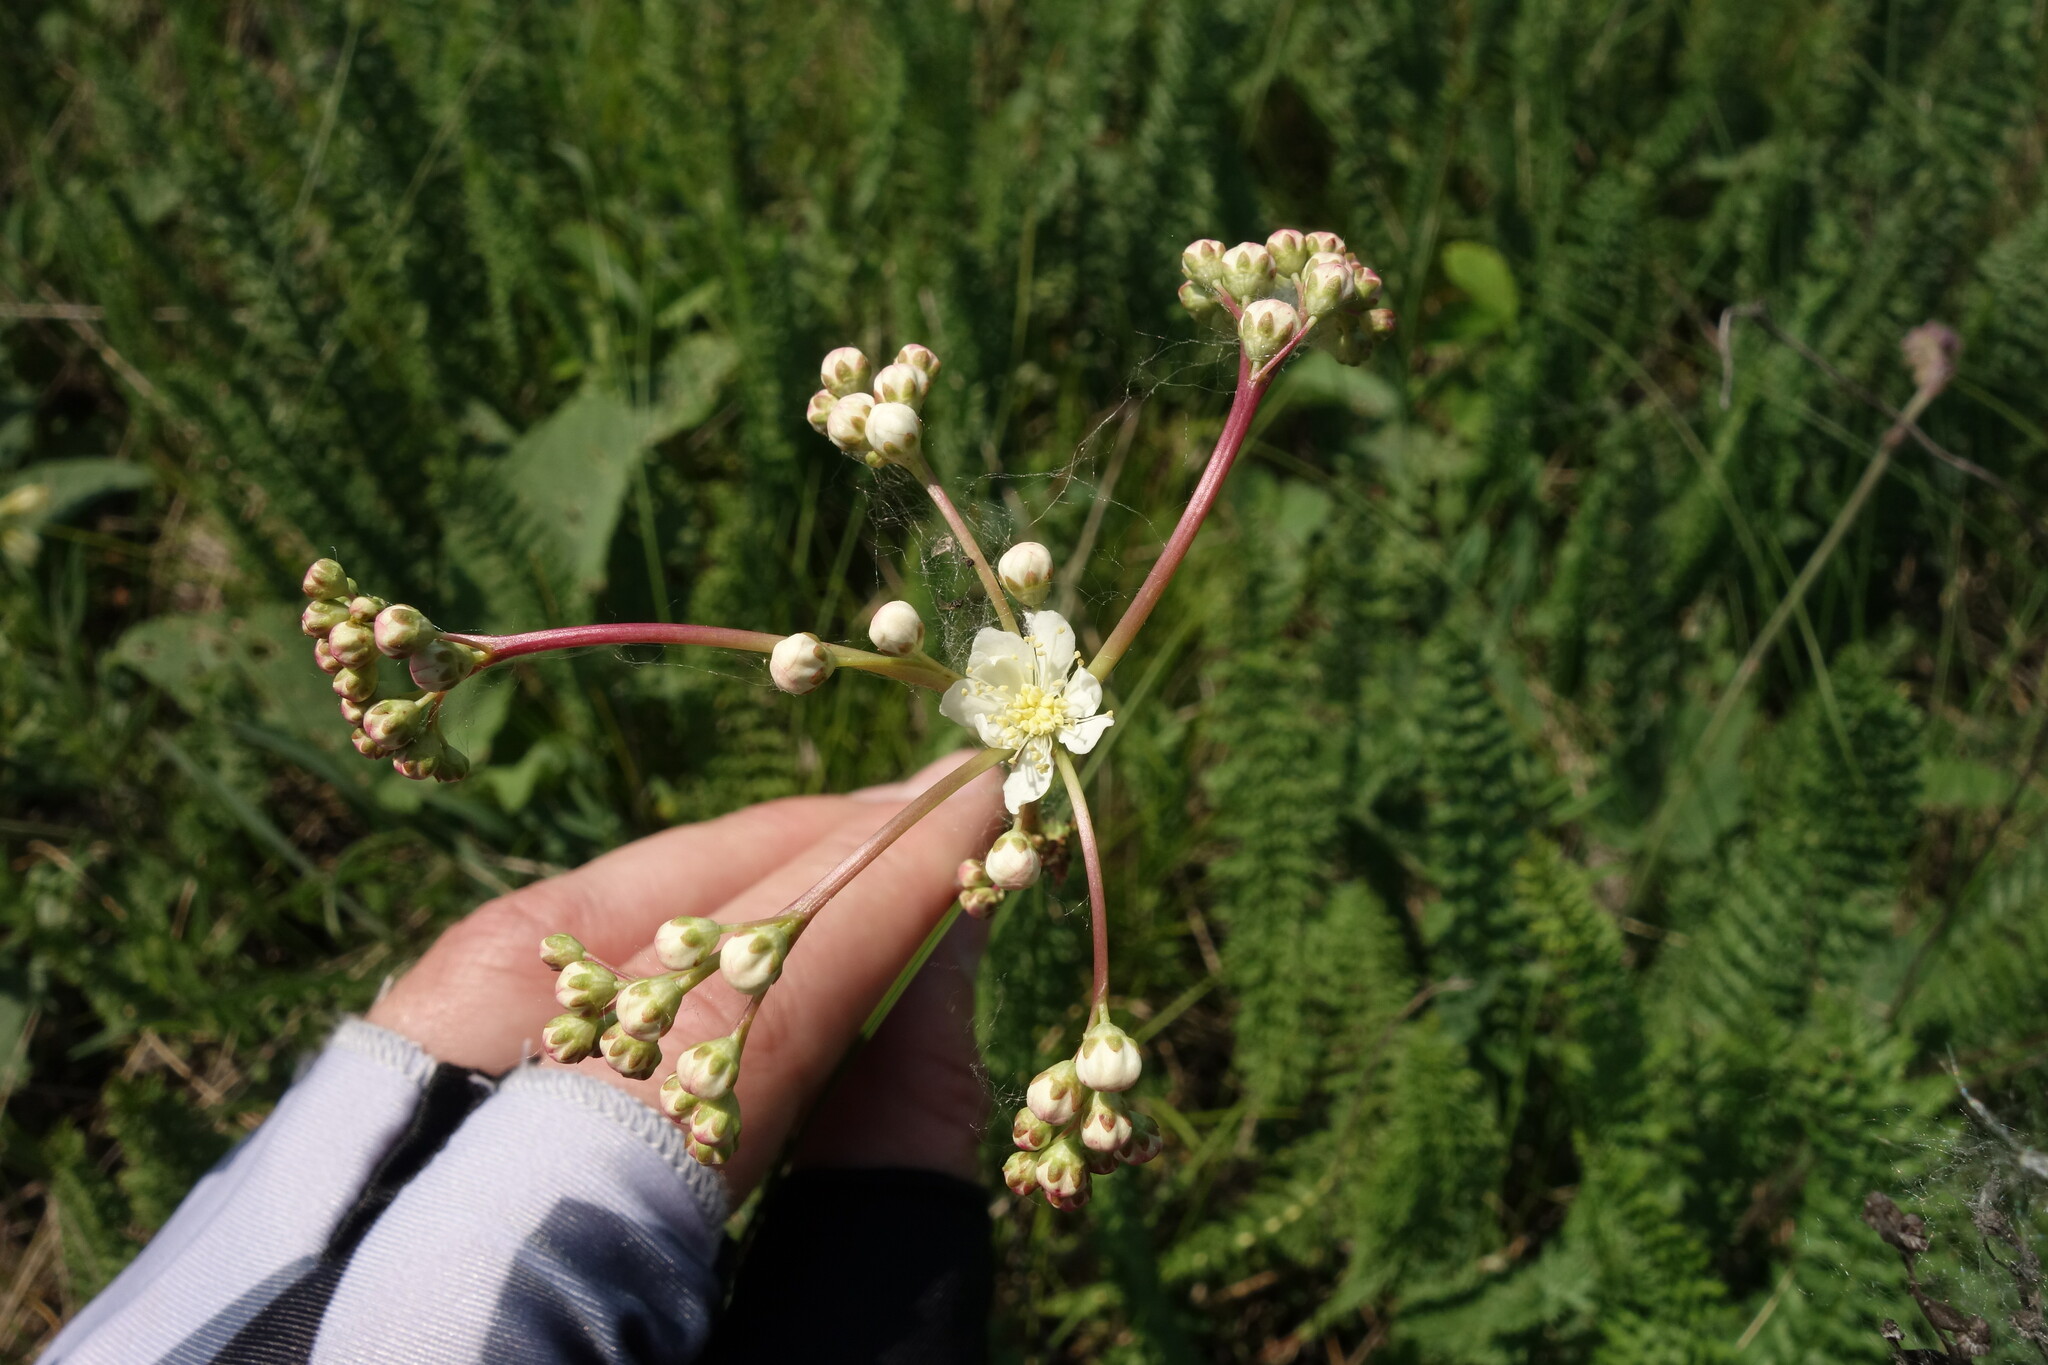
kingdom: Plantae
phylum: Tracheophyta
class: Magnoliopsida
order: Rosales
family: Rosaceae
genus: Filipendula
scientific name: Filipendula vulgaris
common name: Dropwort
